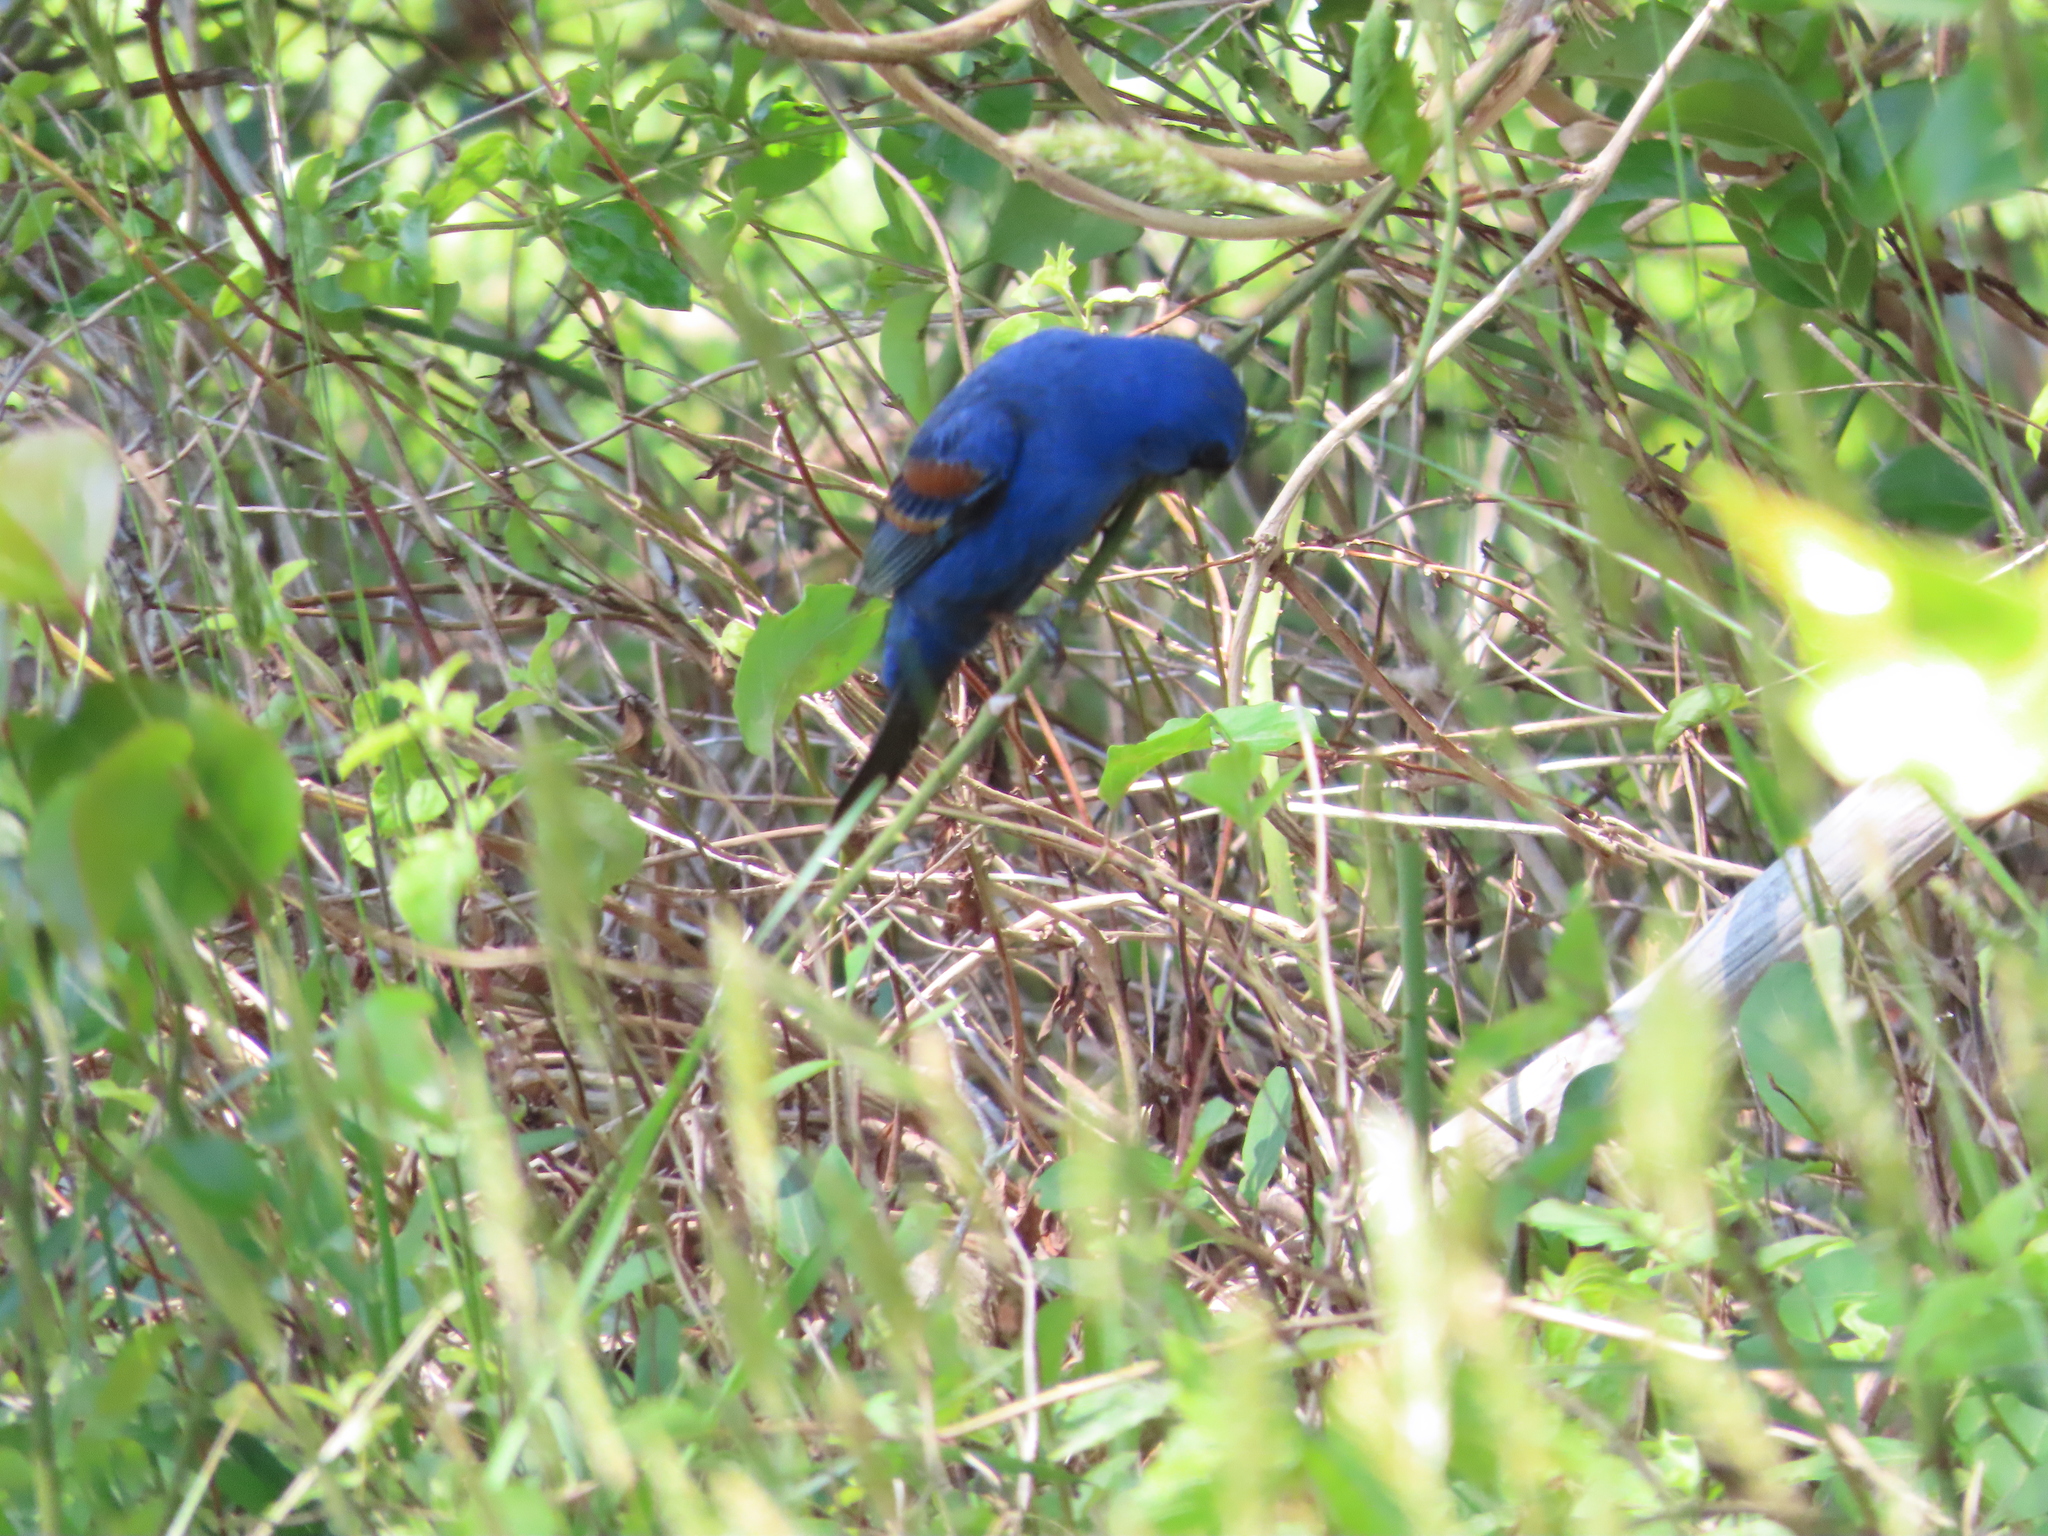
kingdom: Animalia
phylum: Chordata
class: Aves
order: Passeriformes
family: Cardinalidae
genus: Passerina
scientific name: Passerina caerulea
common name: Blue grosbeak
